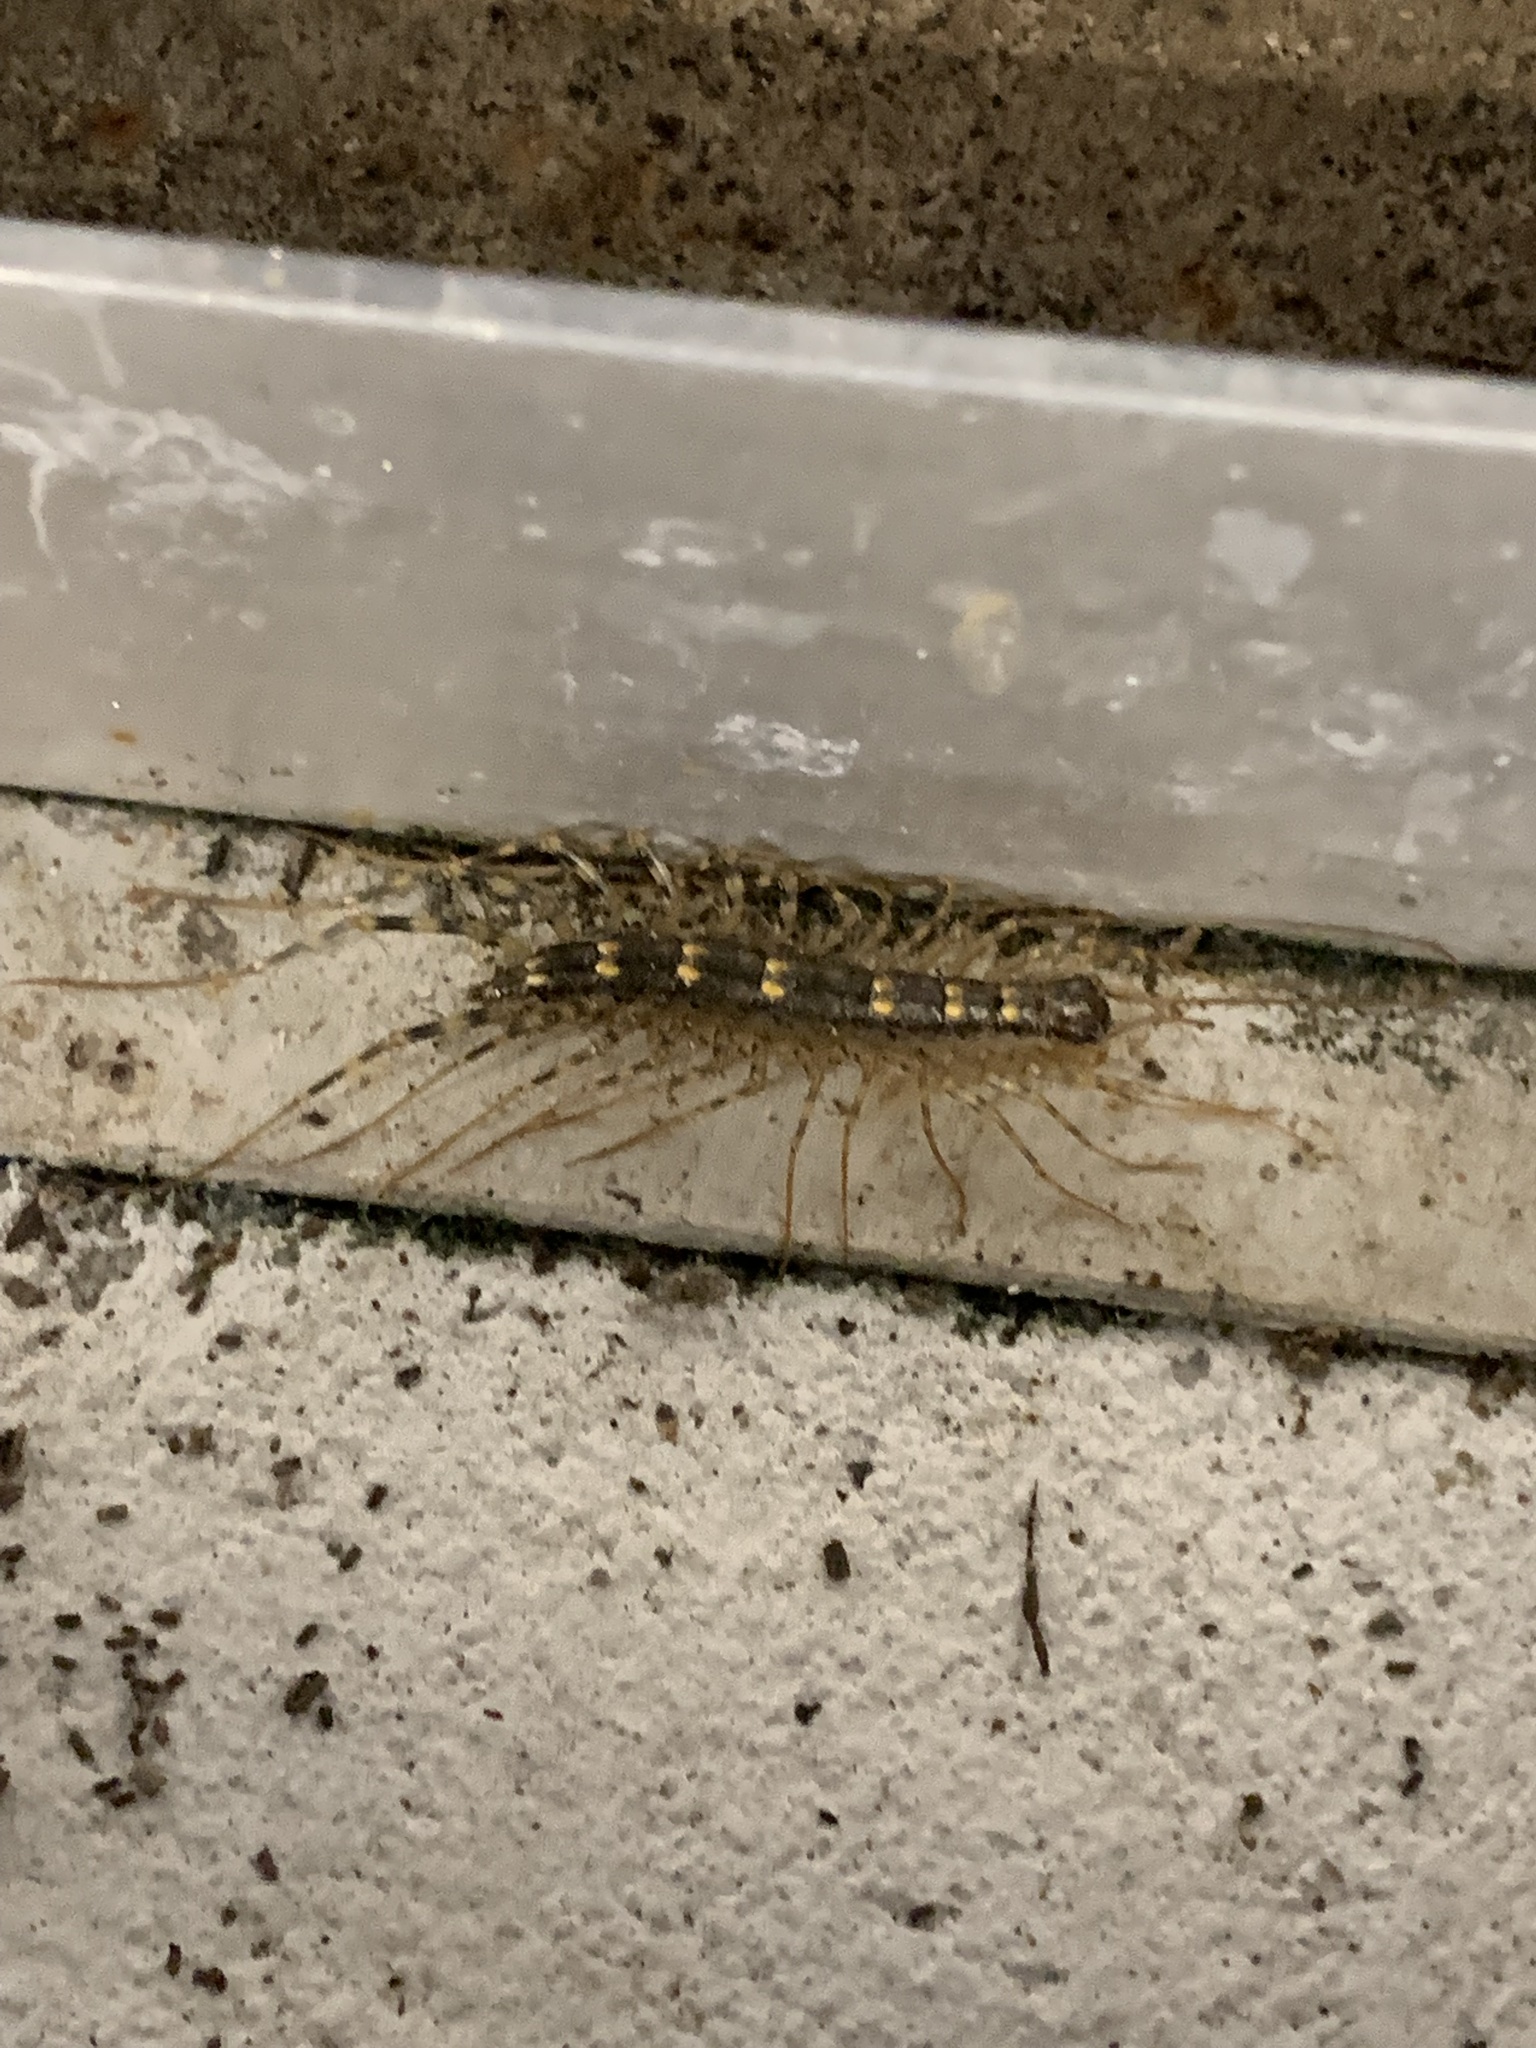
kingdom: Animalia
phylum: Arthropoda
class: Chilopoda
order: Scutigeromorpha
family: Scutigeridae
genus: Thereuonema
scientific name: Thereuonema tuberculata
